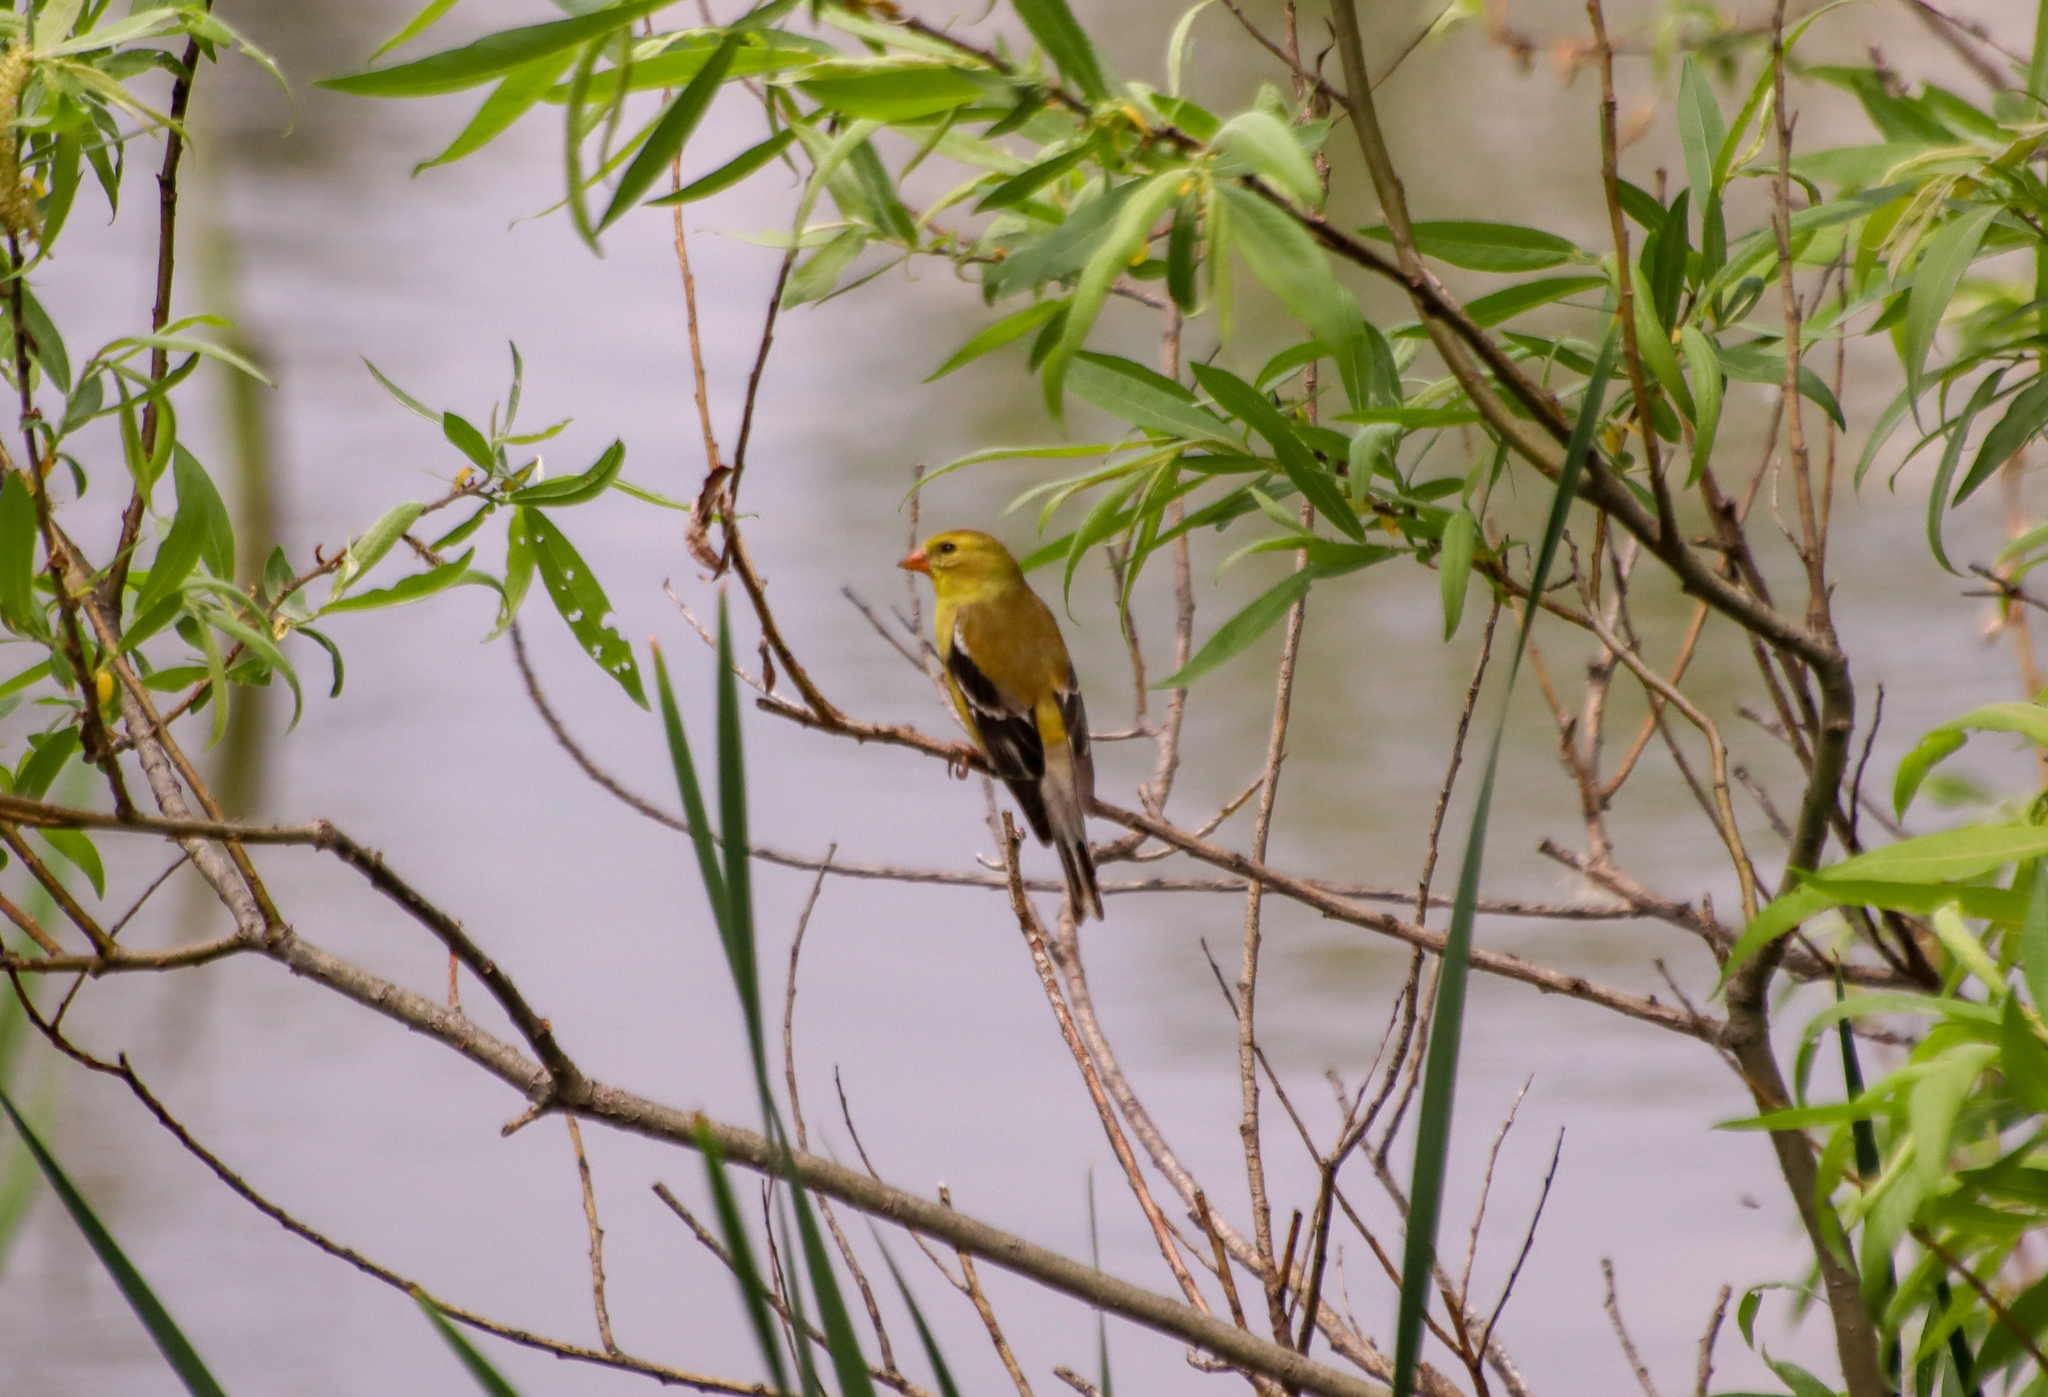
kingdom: Animalia
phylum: Chordata
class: Aves
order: Passeriformes
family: Fringillidae
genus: Spinus
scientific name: Spinus tristis
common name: American goldfinch
